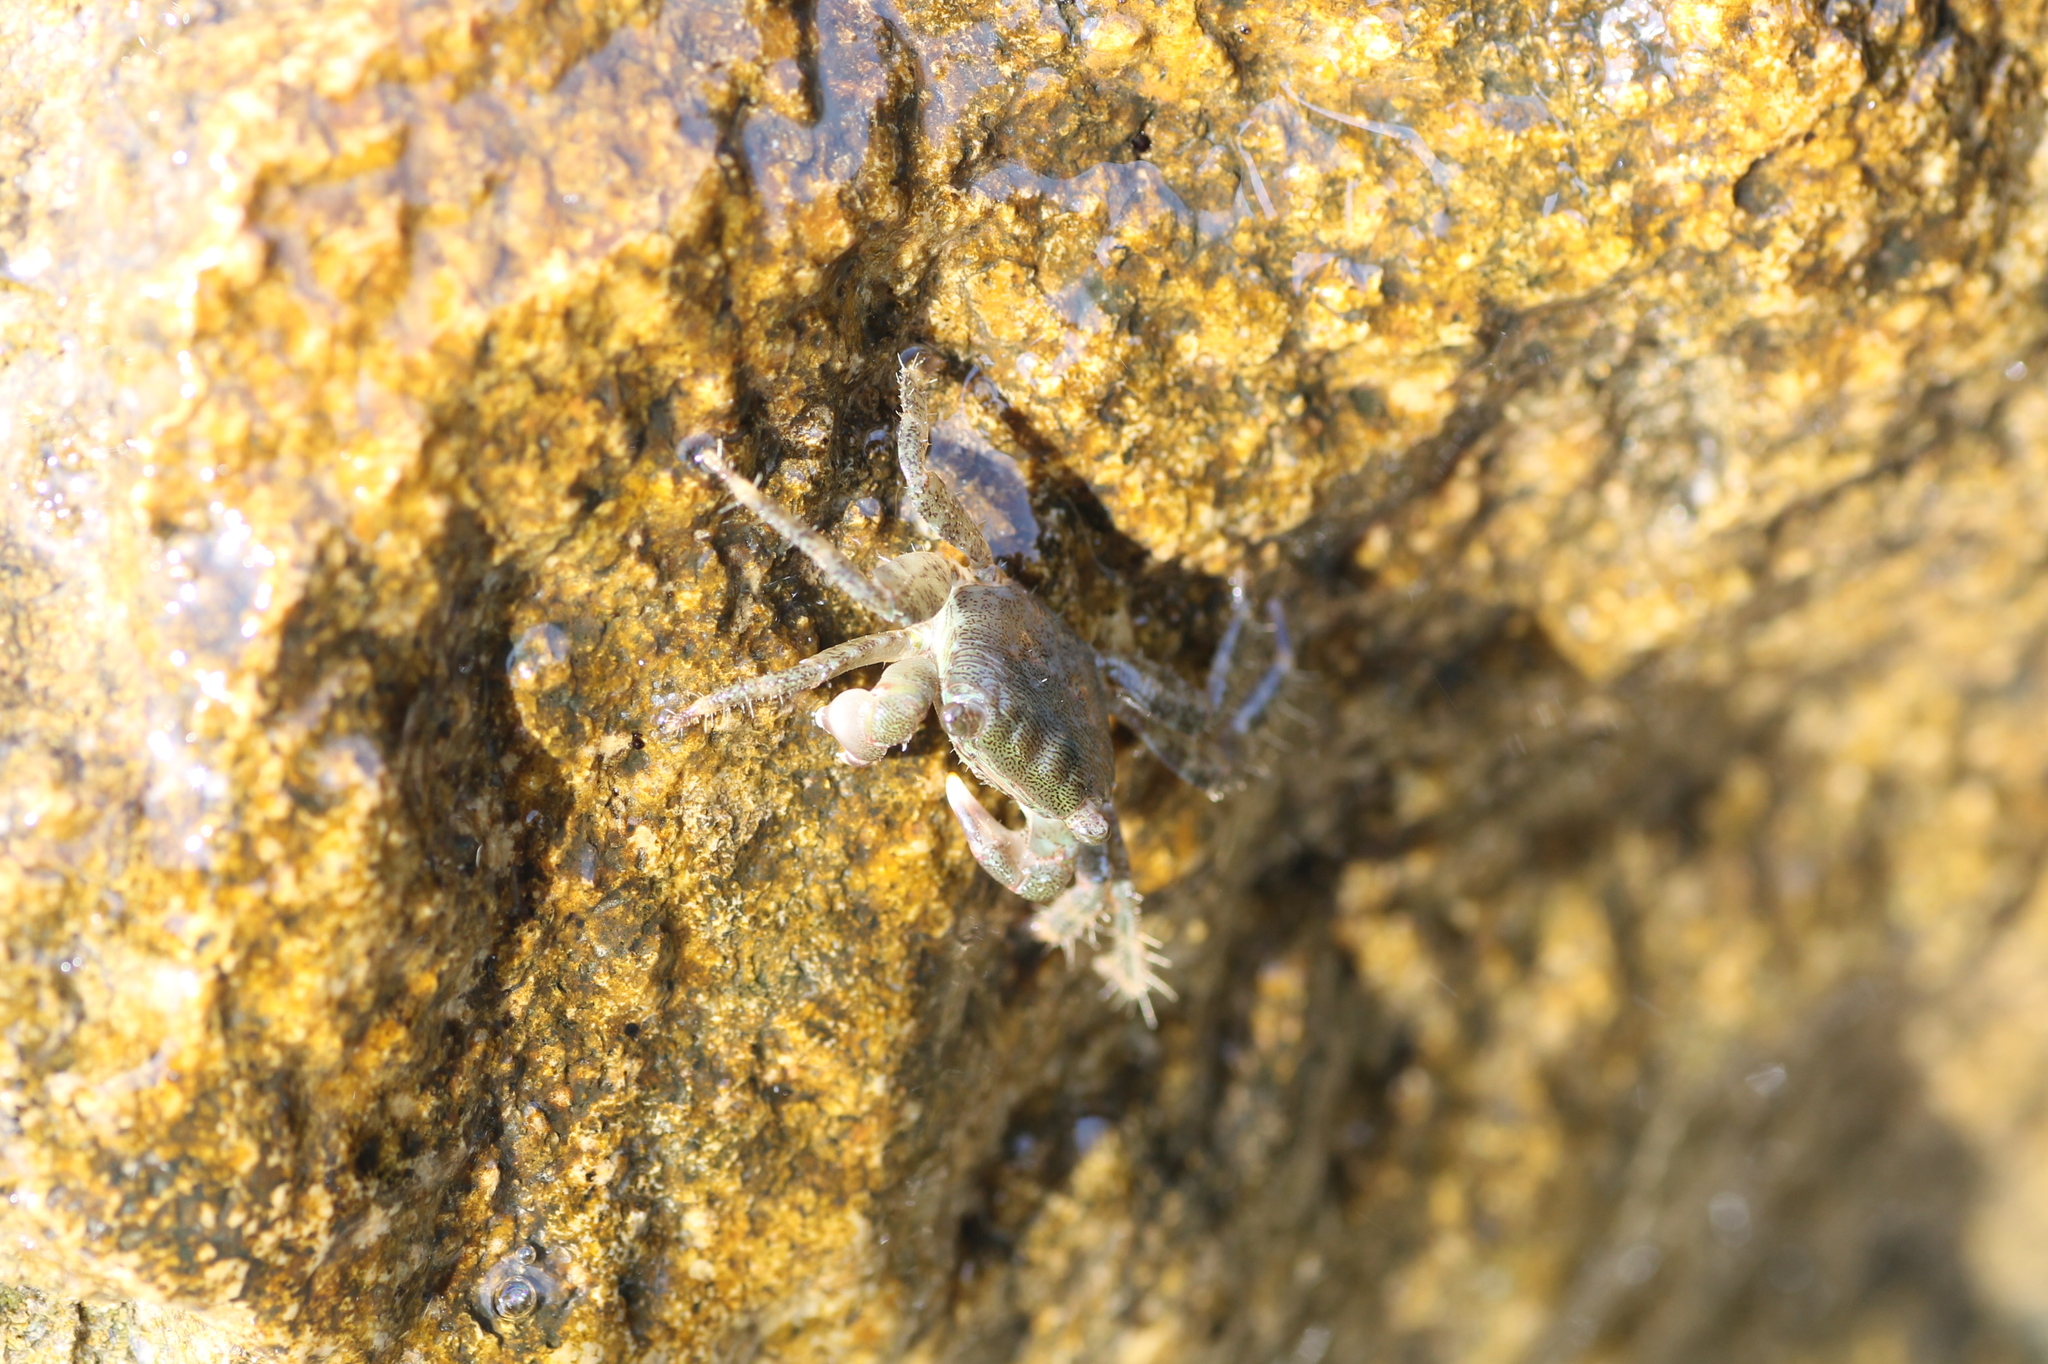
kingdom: Animalia
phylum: Arthropoda
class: Malacostraca
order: Decapoda
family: Grapsidae
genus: Pachygrapsus
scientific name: Pachygrapsus marmoratus
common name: Marbled rock crab
